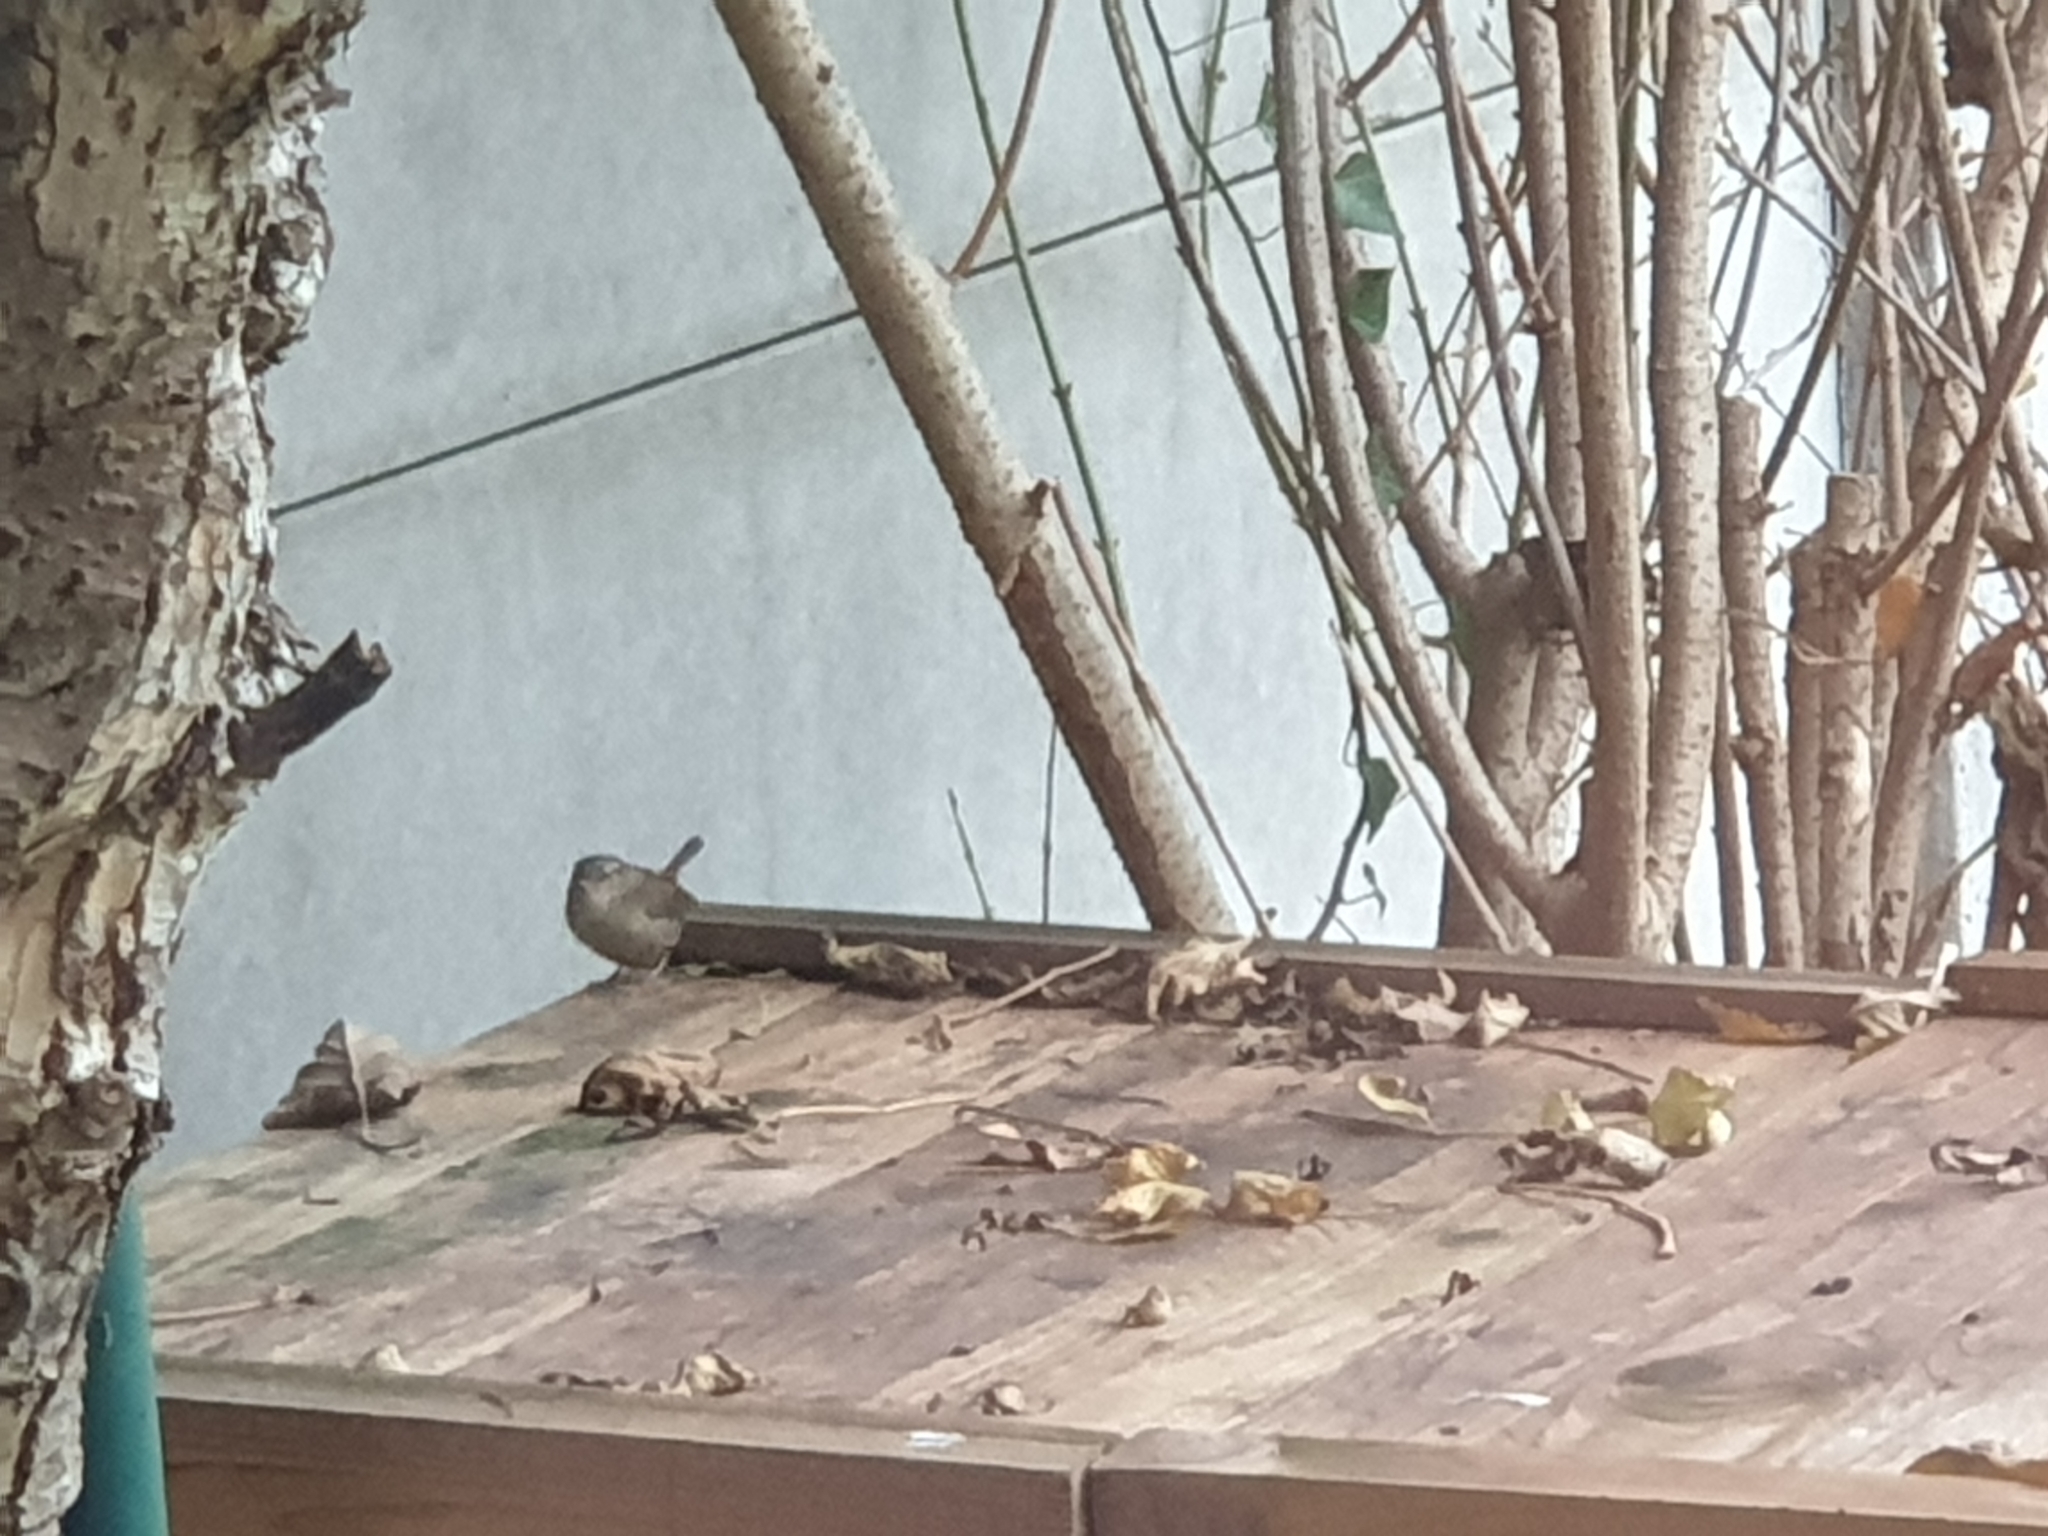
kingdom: Animalia
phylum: Chordata
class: Aves
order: Passeriformes
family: Troglodytidae
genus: Troglodytes
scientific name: Troglodytes troglodytes
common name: Eurasian wren
